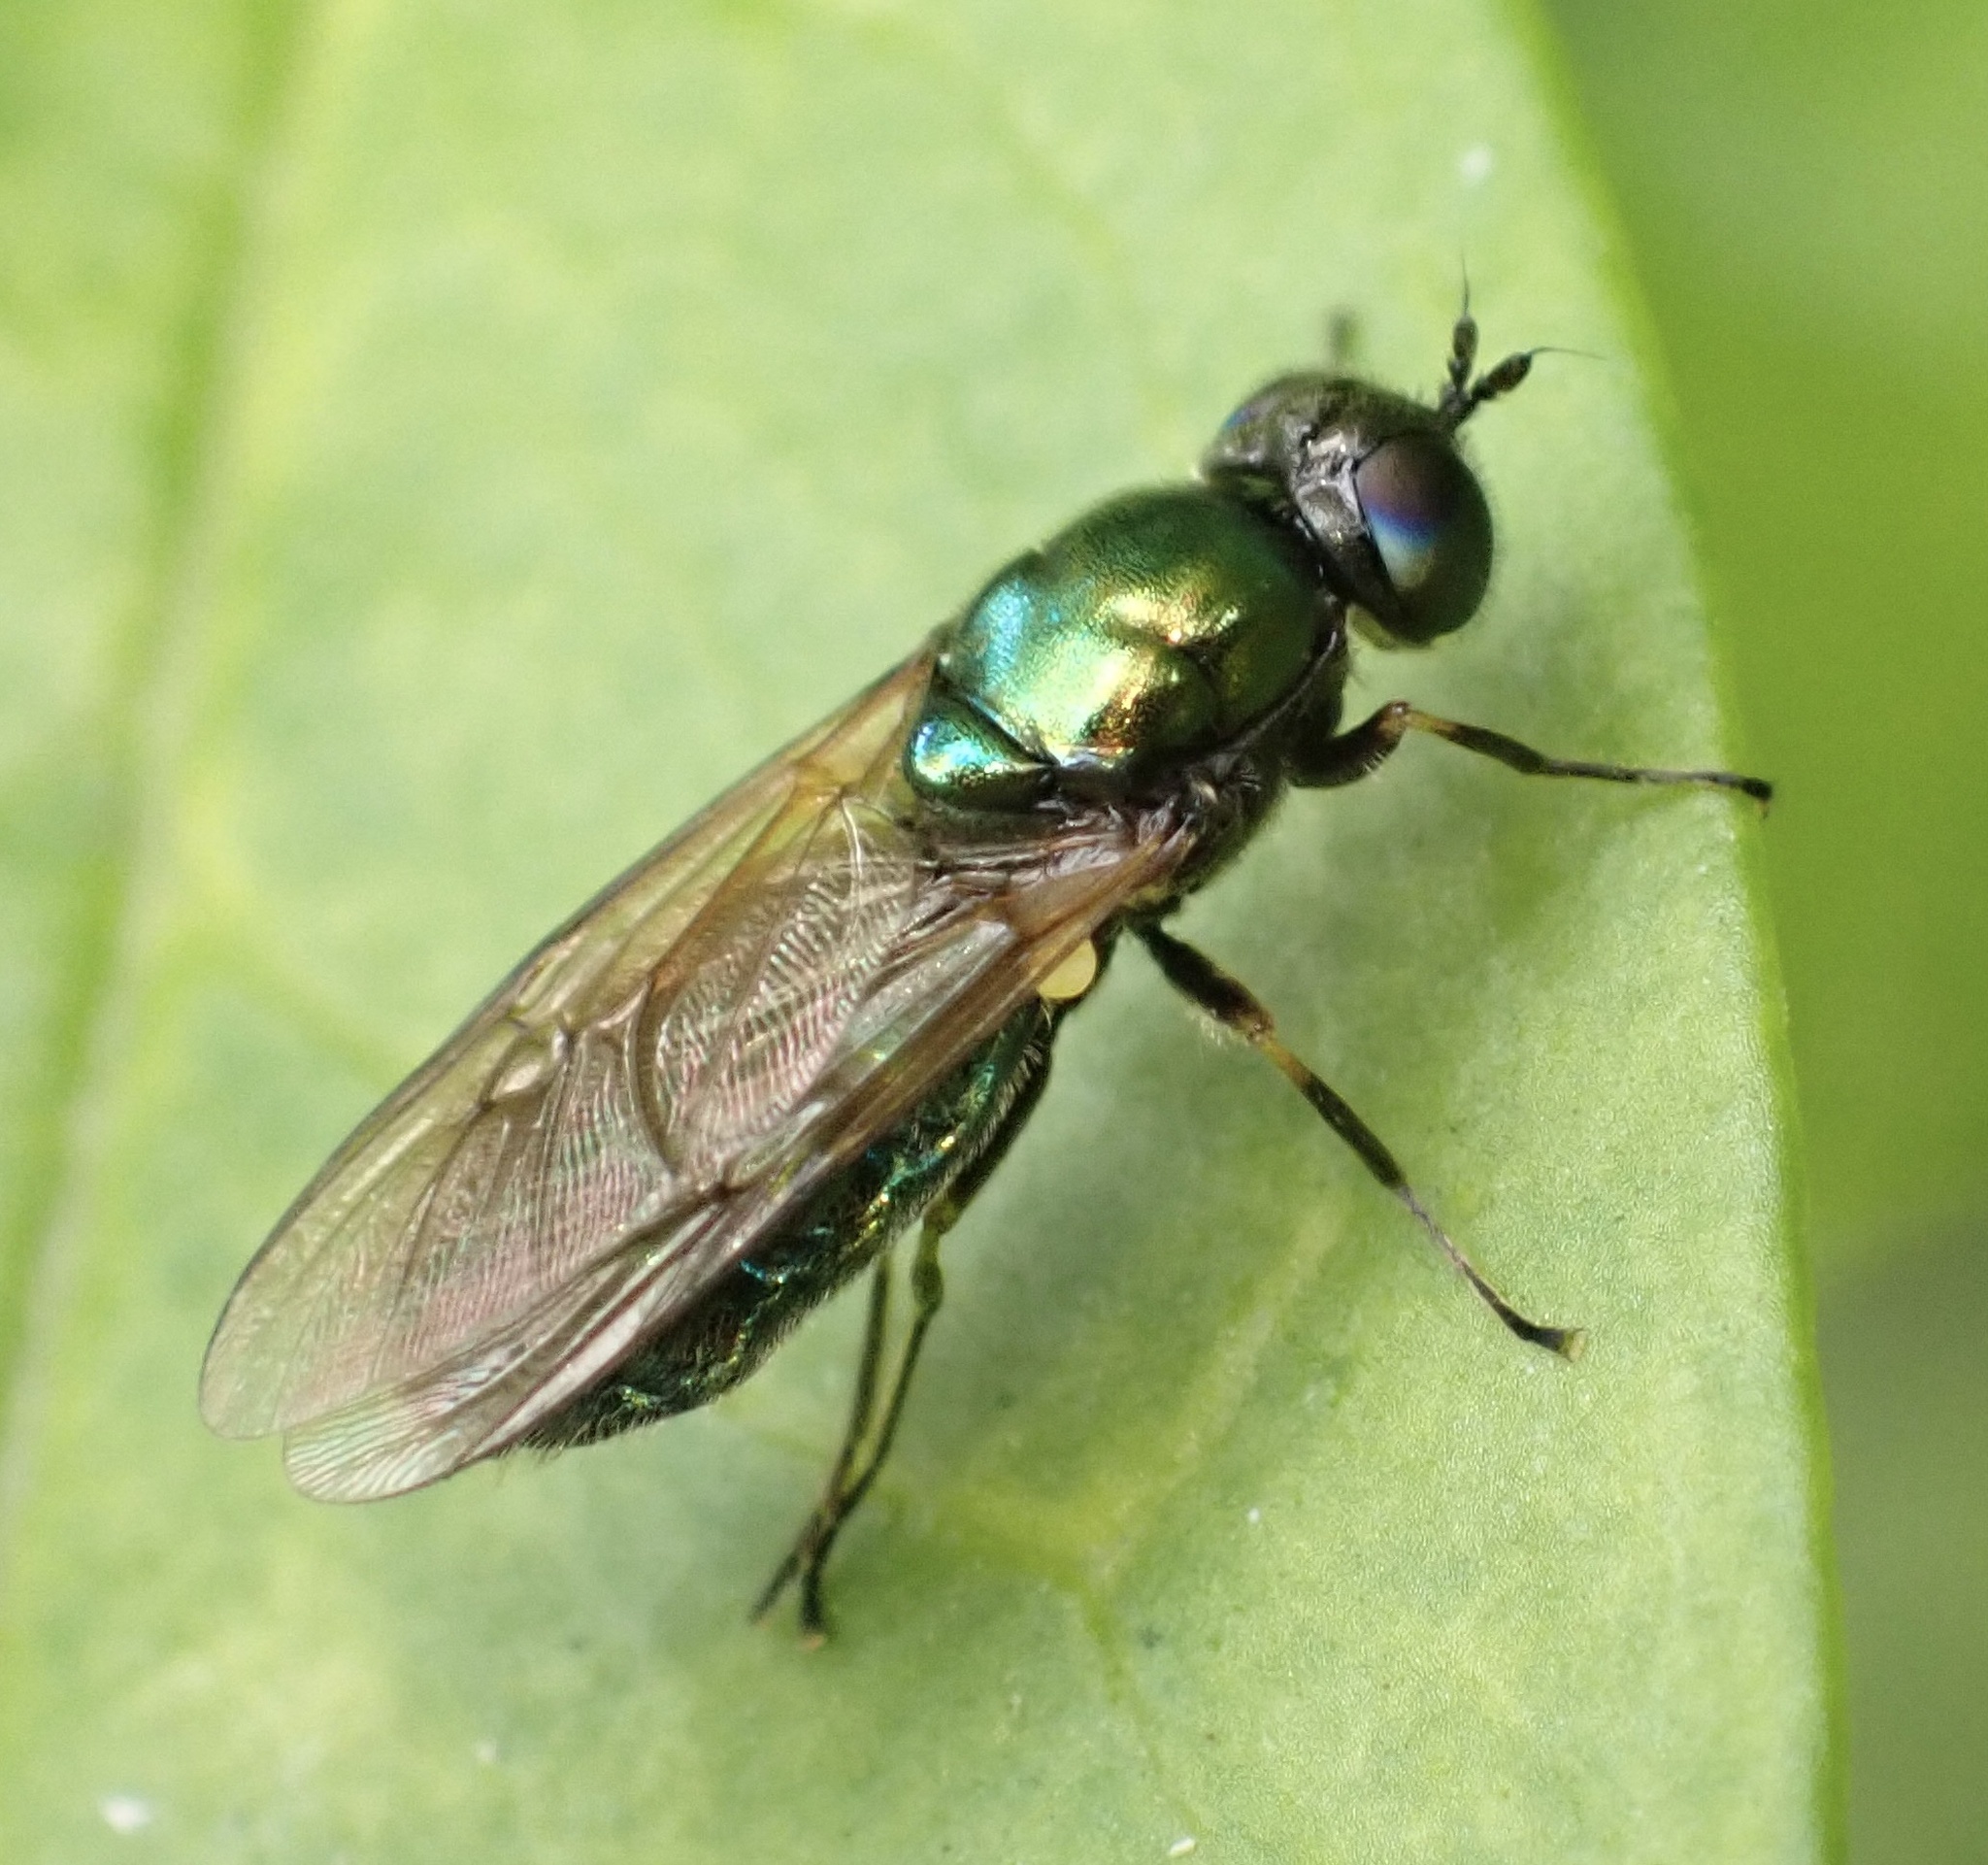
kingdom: Animalia
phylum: Arthropoda
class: Insecta
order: Diptera
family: Stratiomyidae
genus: Chloromyia
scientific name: Chloromyia formosa
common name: Soldier fly
